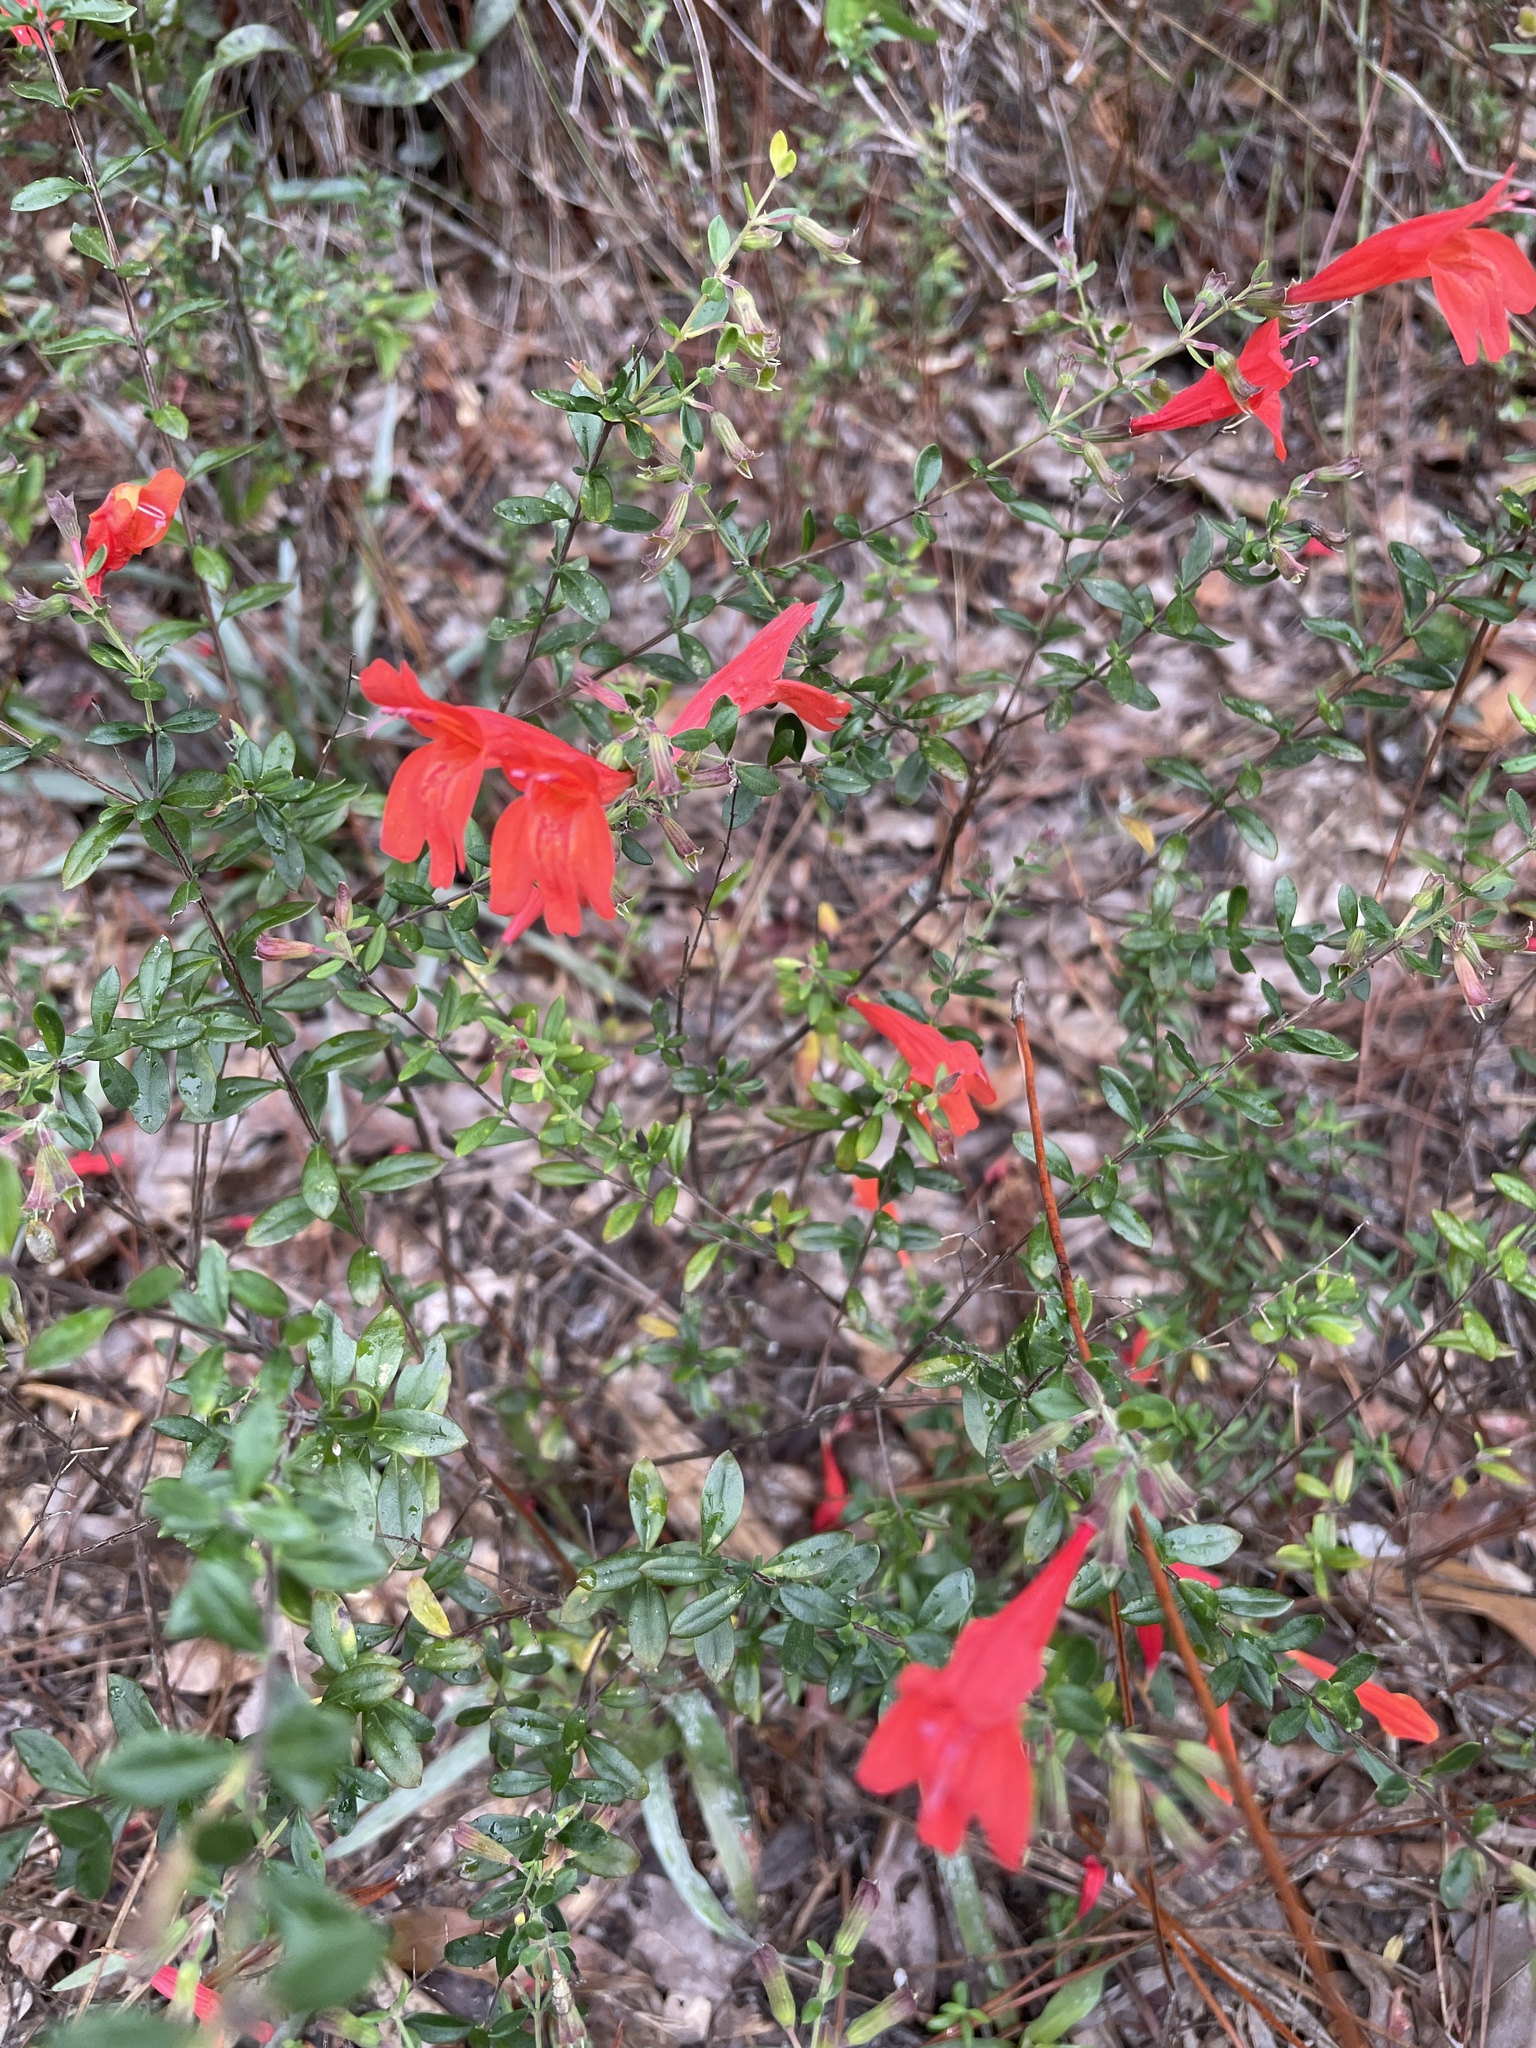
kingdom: Plantae
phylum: Tracheophyta
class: Magnoliopsida
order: Lamiales
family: Lamiaceae
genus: Clinopodium
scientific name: Clinopodium coccineum
